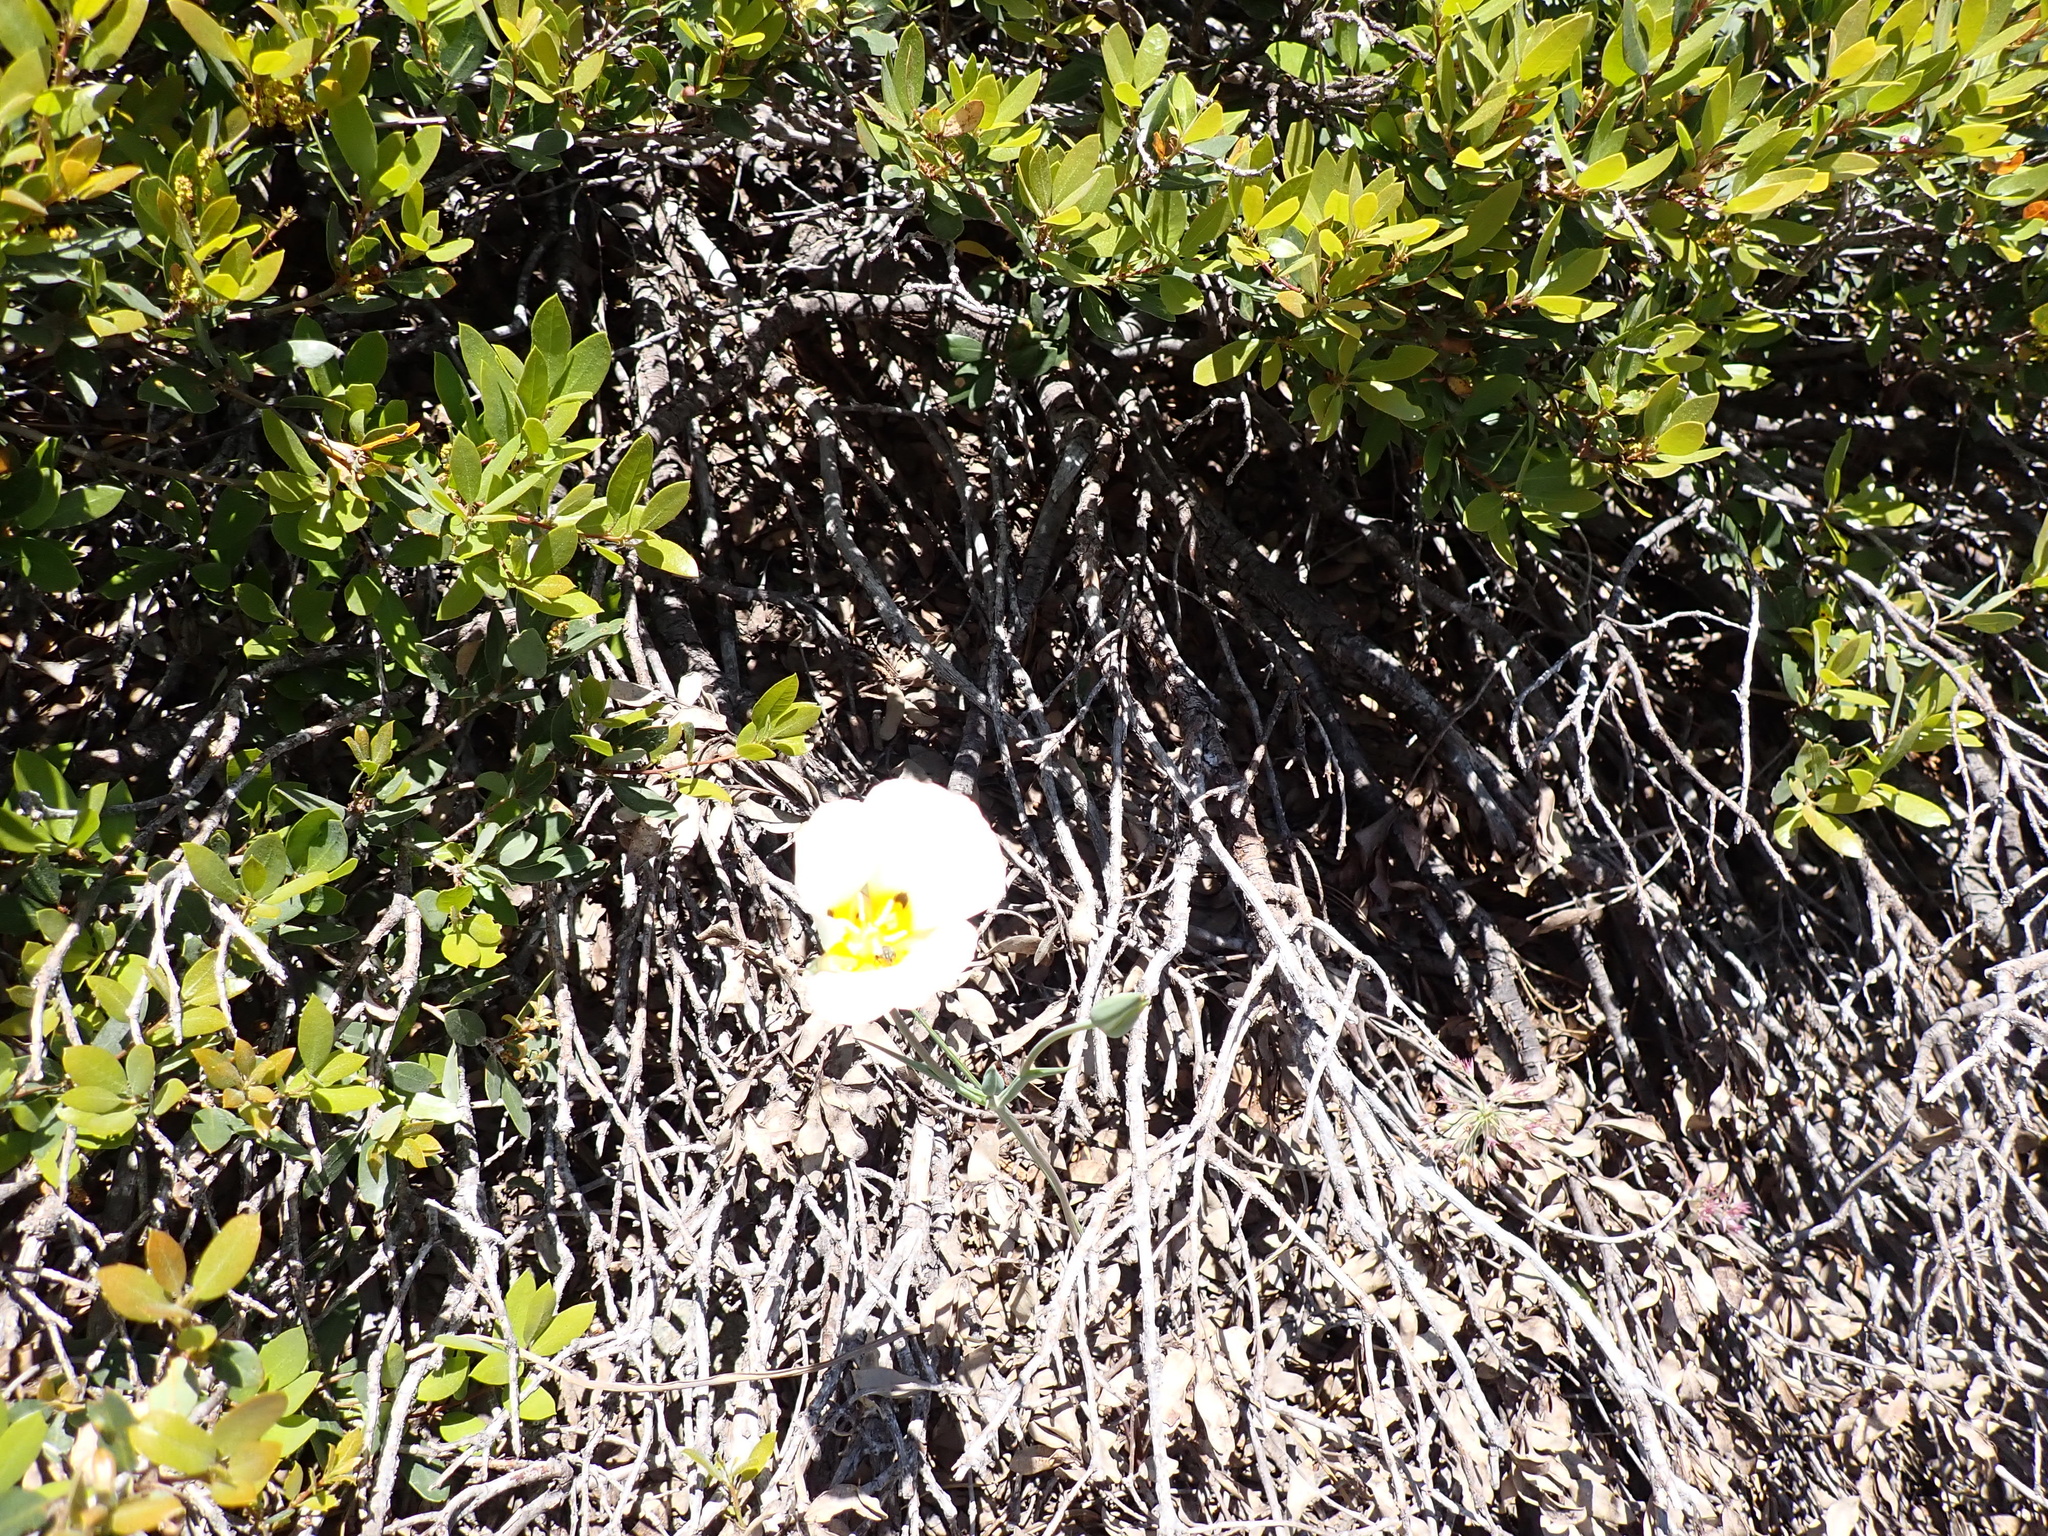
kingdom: Plantae
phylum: Tracheophyta
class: Liliopsida
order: Liliales
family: Liliaceae
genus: Calochortus
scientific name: Calochortus leichtlinii
